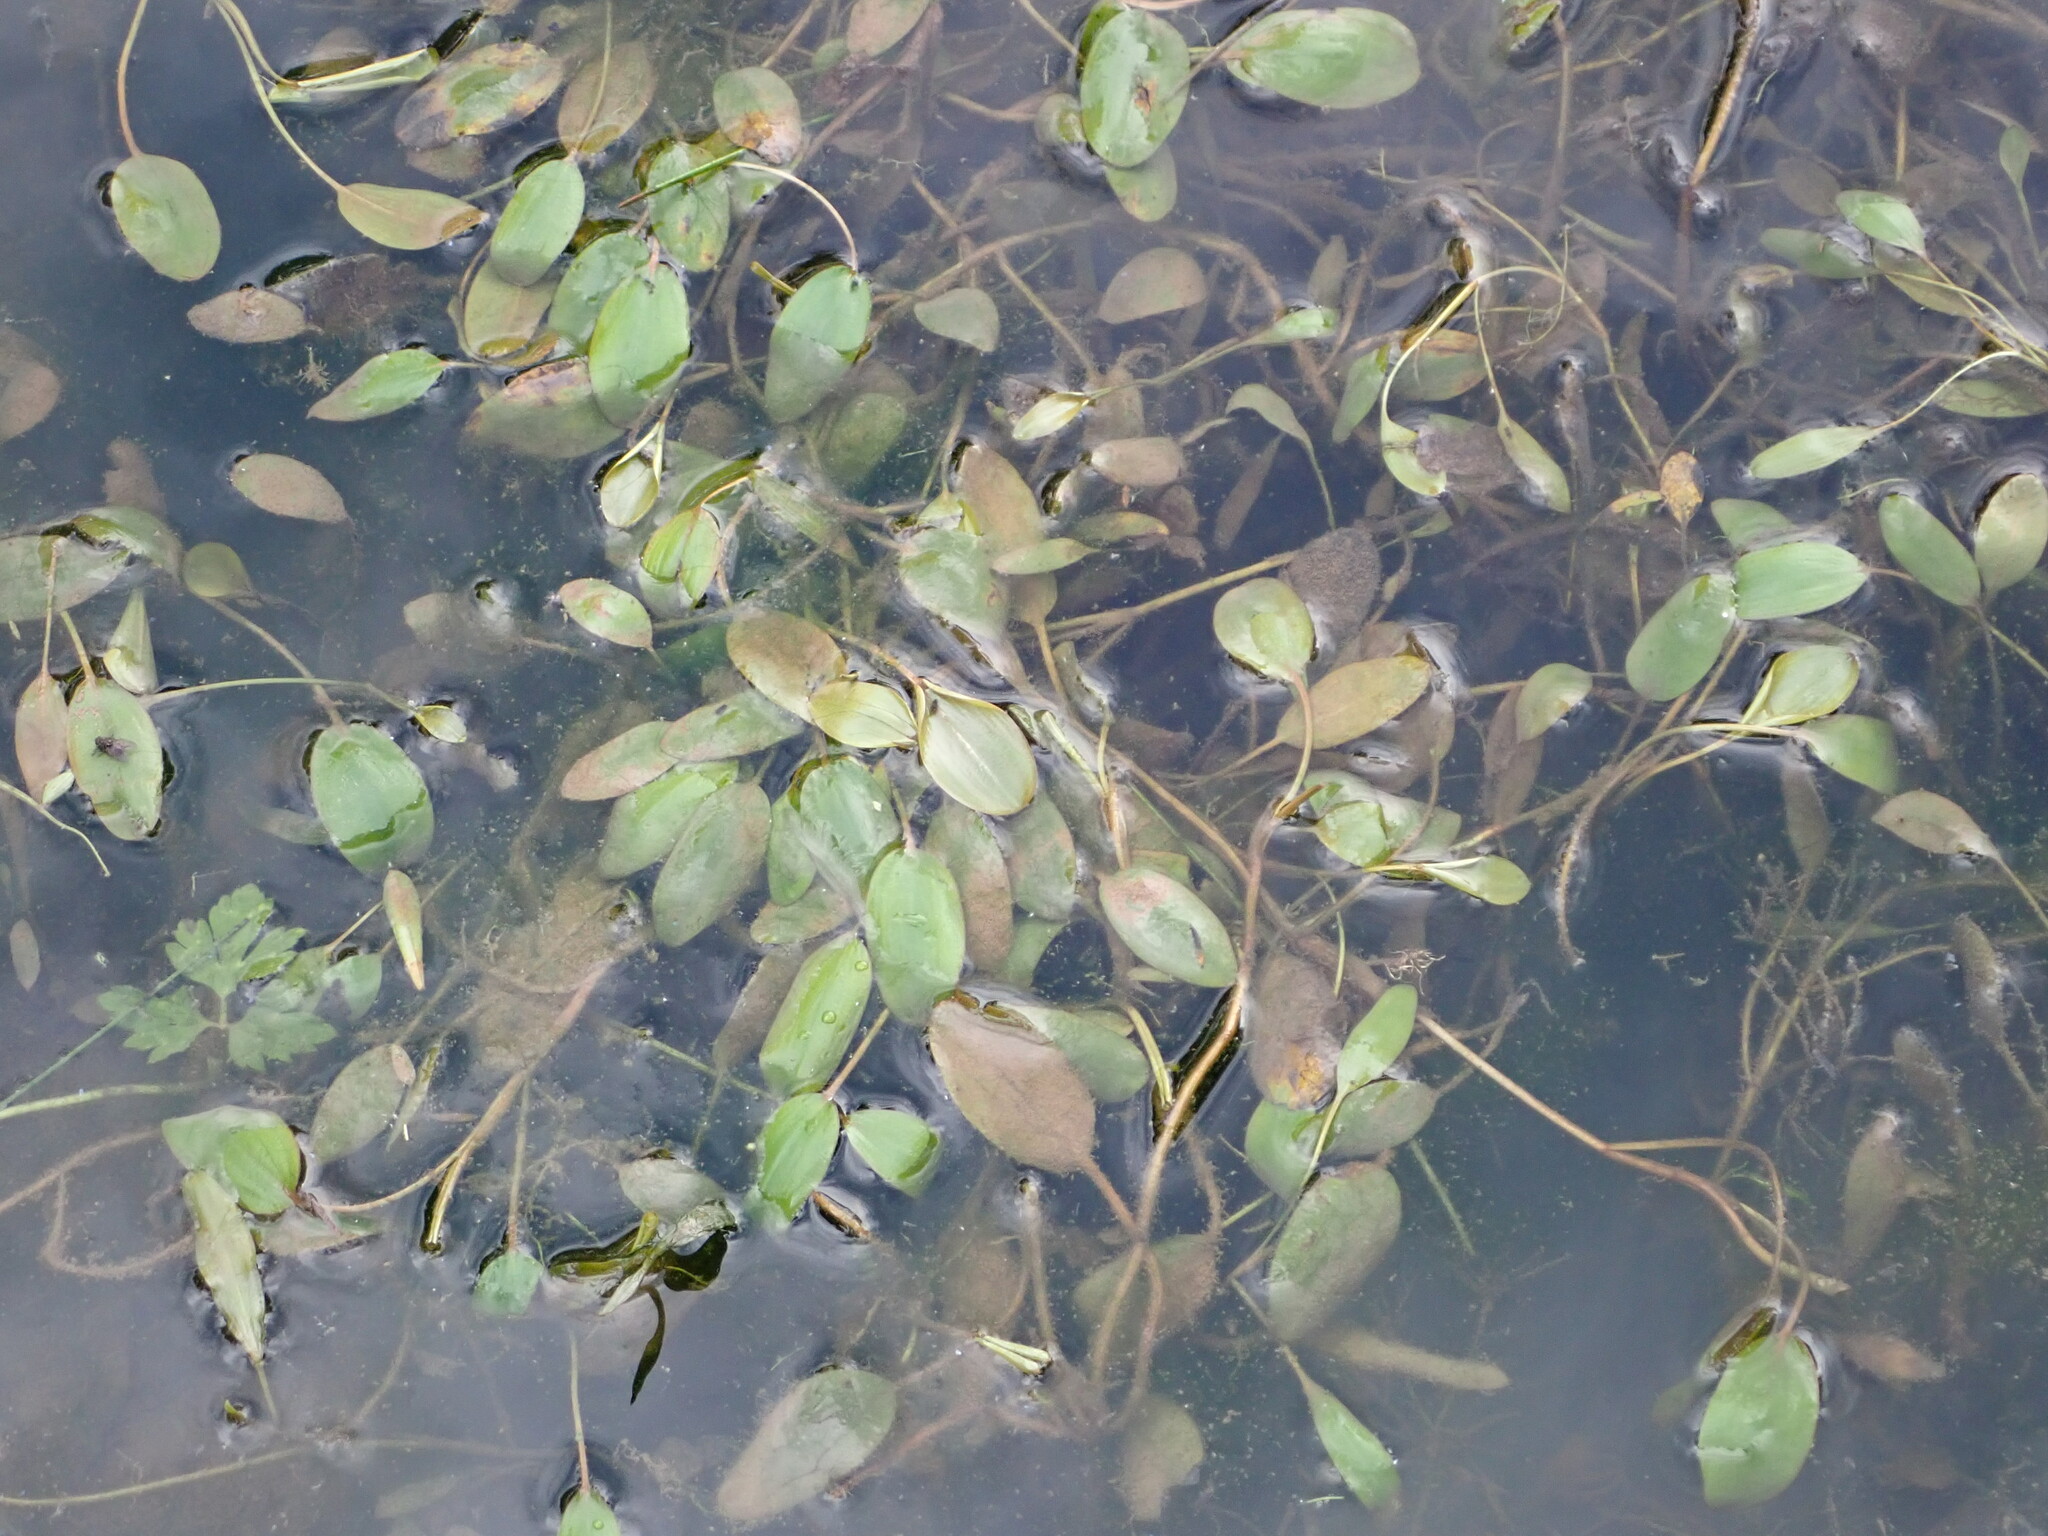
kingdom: Plantae
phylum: Tracheophyta
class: Liliopsida
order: Alismatales
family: Potamogetonaceae
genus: Potamogeton
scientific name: Potamogeton cheesemanii
